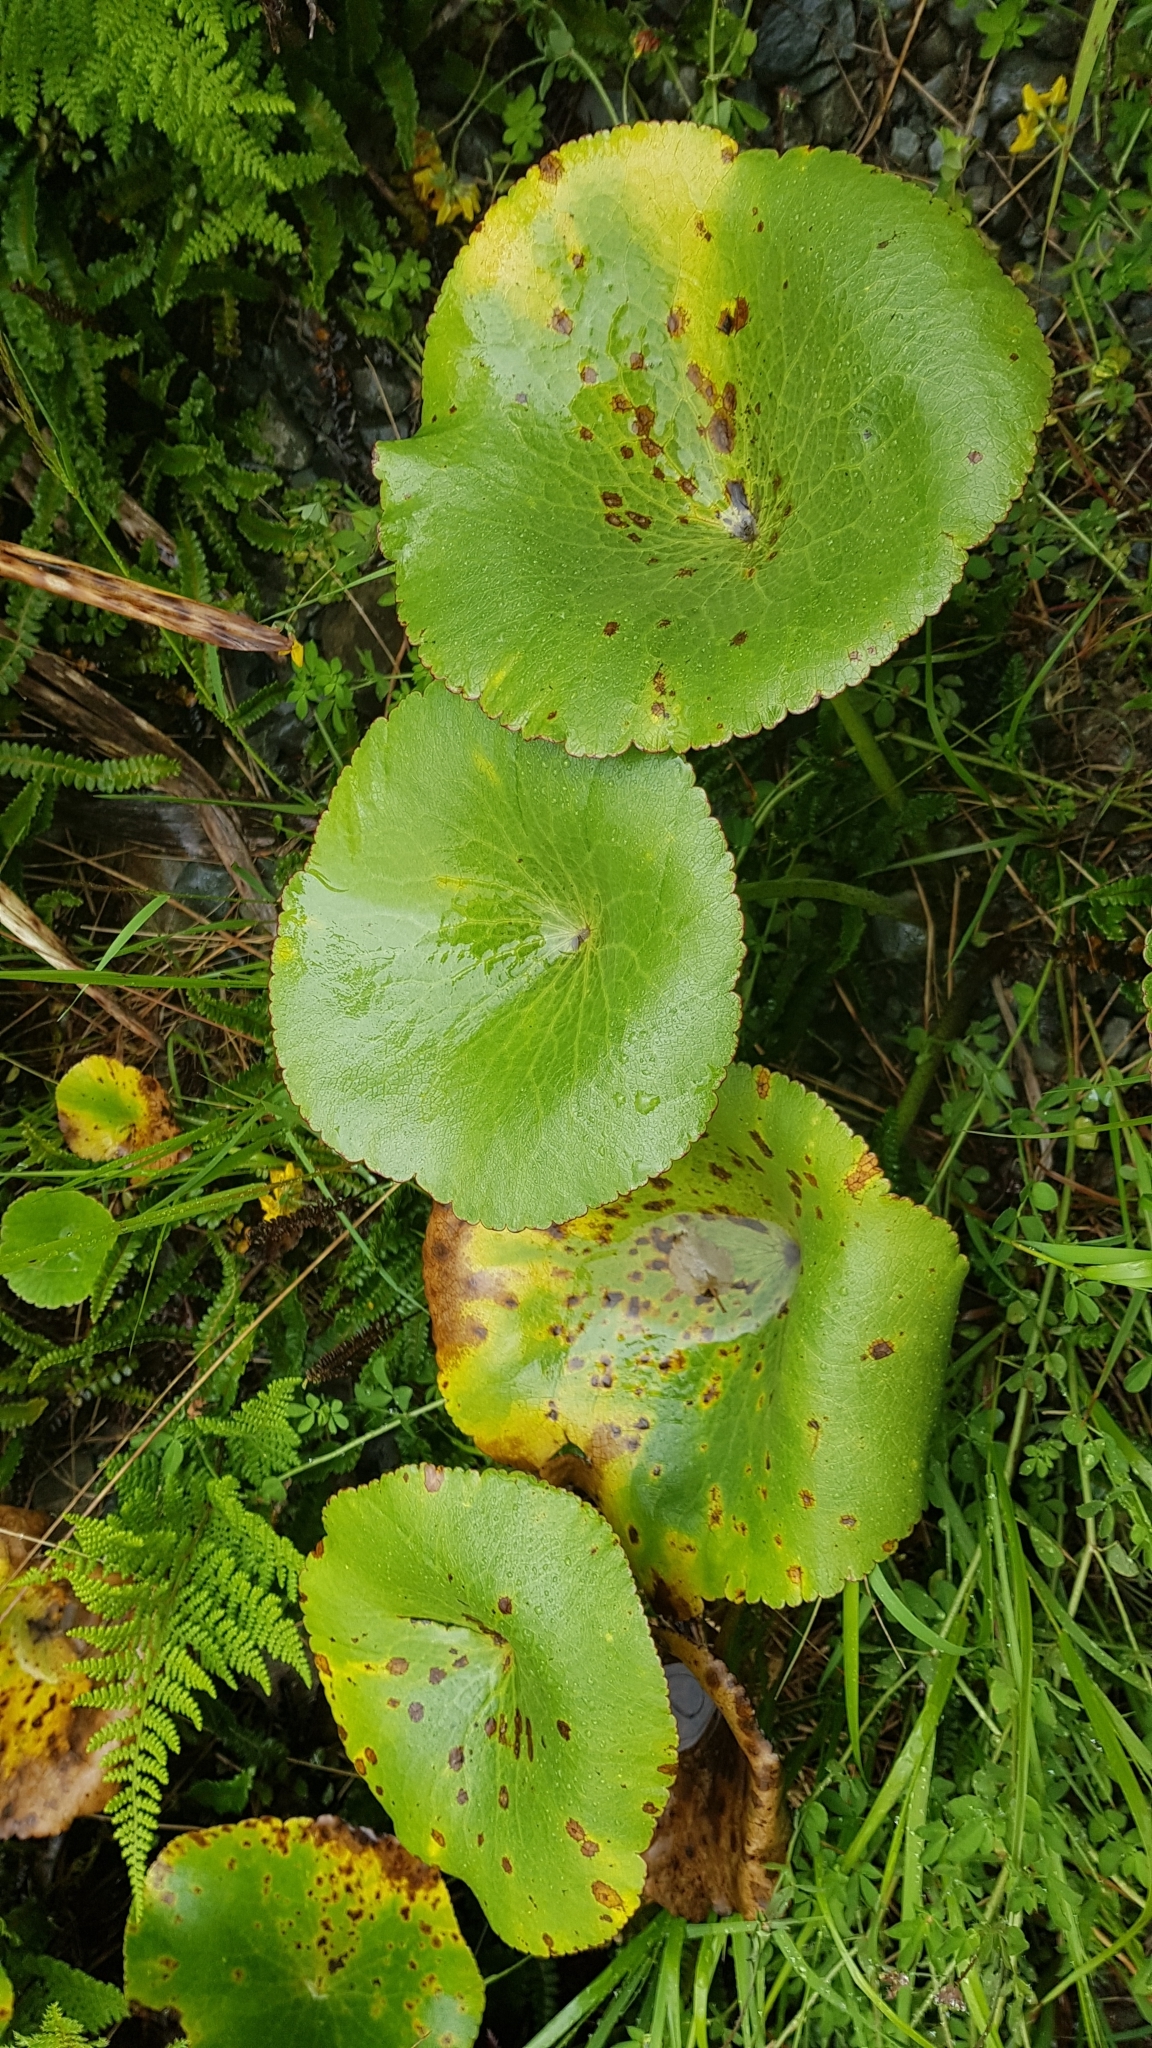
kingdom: Plantae
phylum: Tracheophyta
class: Magnoliopsida
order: Ranunculales
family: Ranunculaceae
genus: Ranunculus
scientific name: Ranunculus lyallii
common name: Mountain-lily
